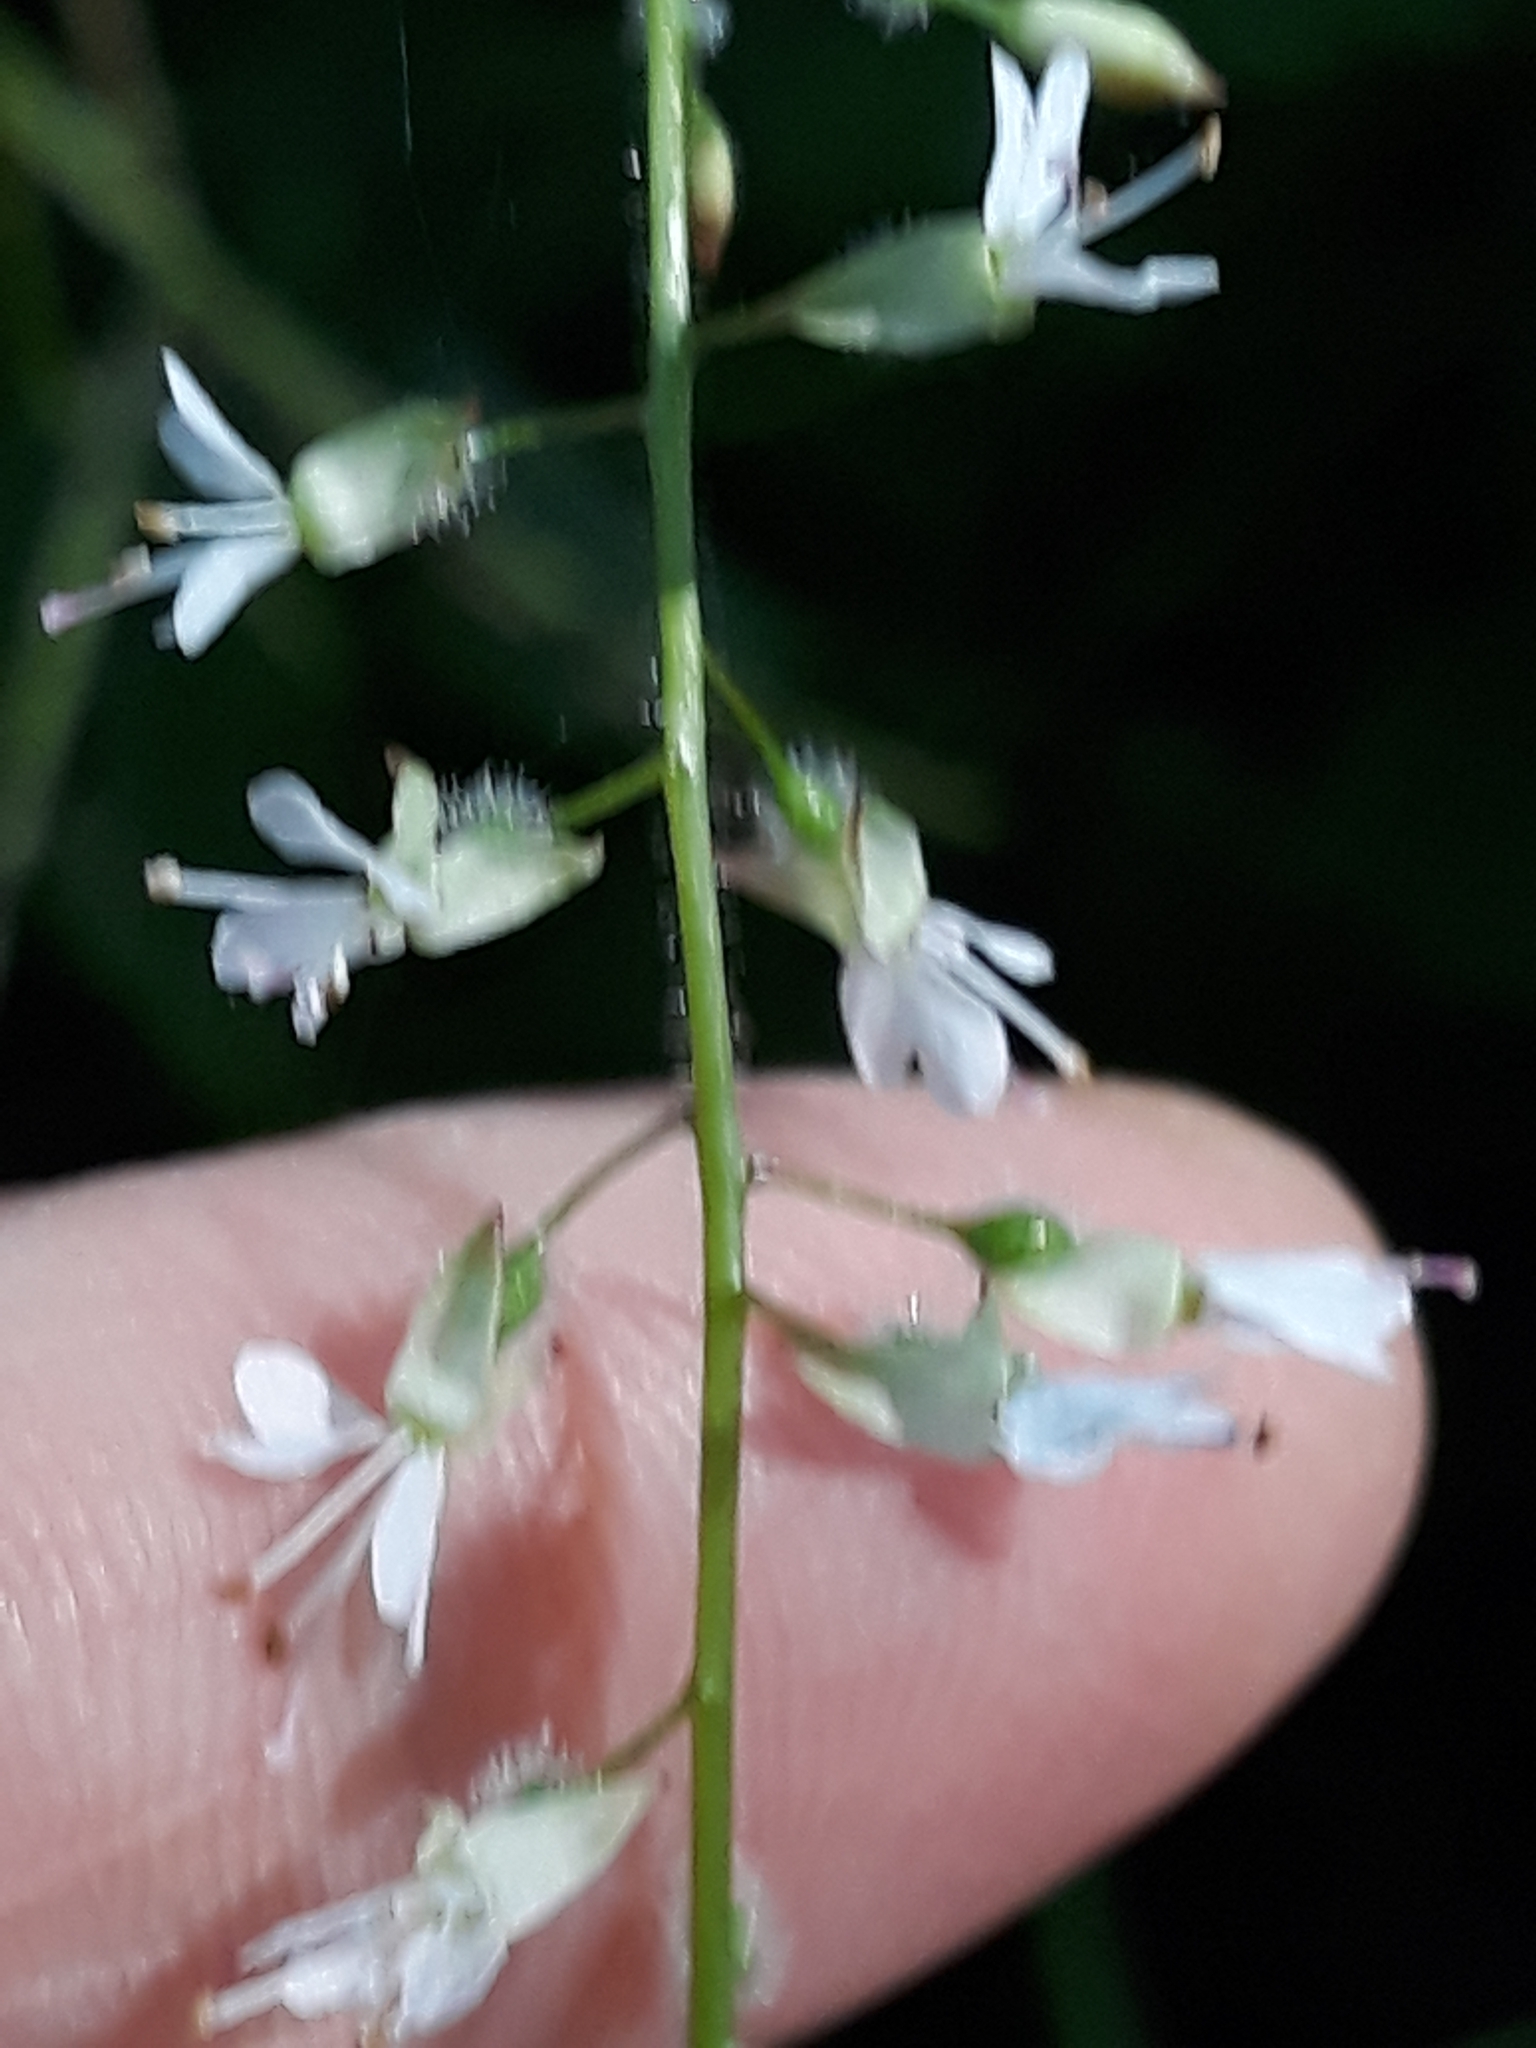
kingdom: Plantae
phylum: Tracheophyta
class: Magnoliopsida
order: Myrtales
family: Onagraceae
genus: Circaea
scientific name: Circaea lutetiana
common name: Enchanter's-nightshade
